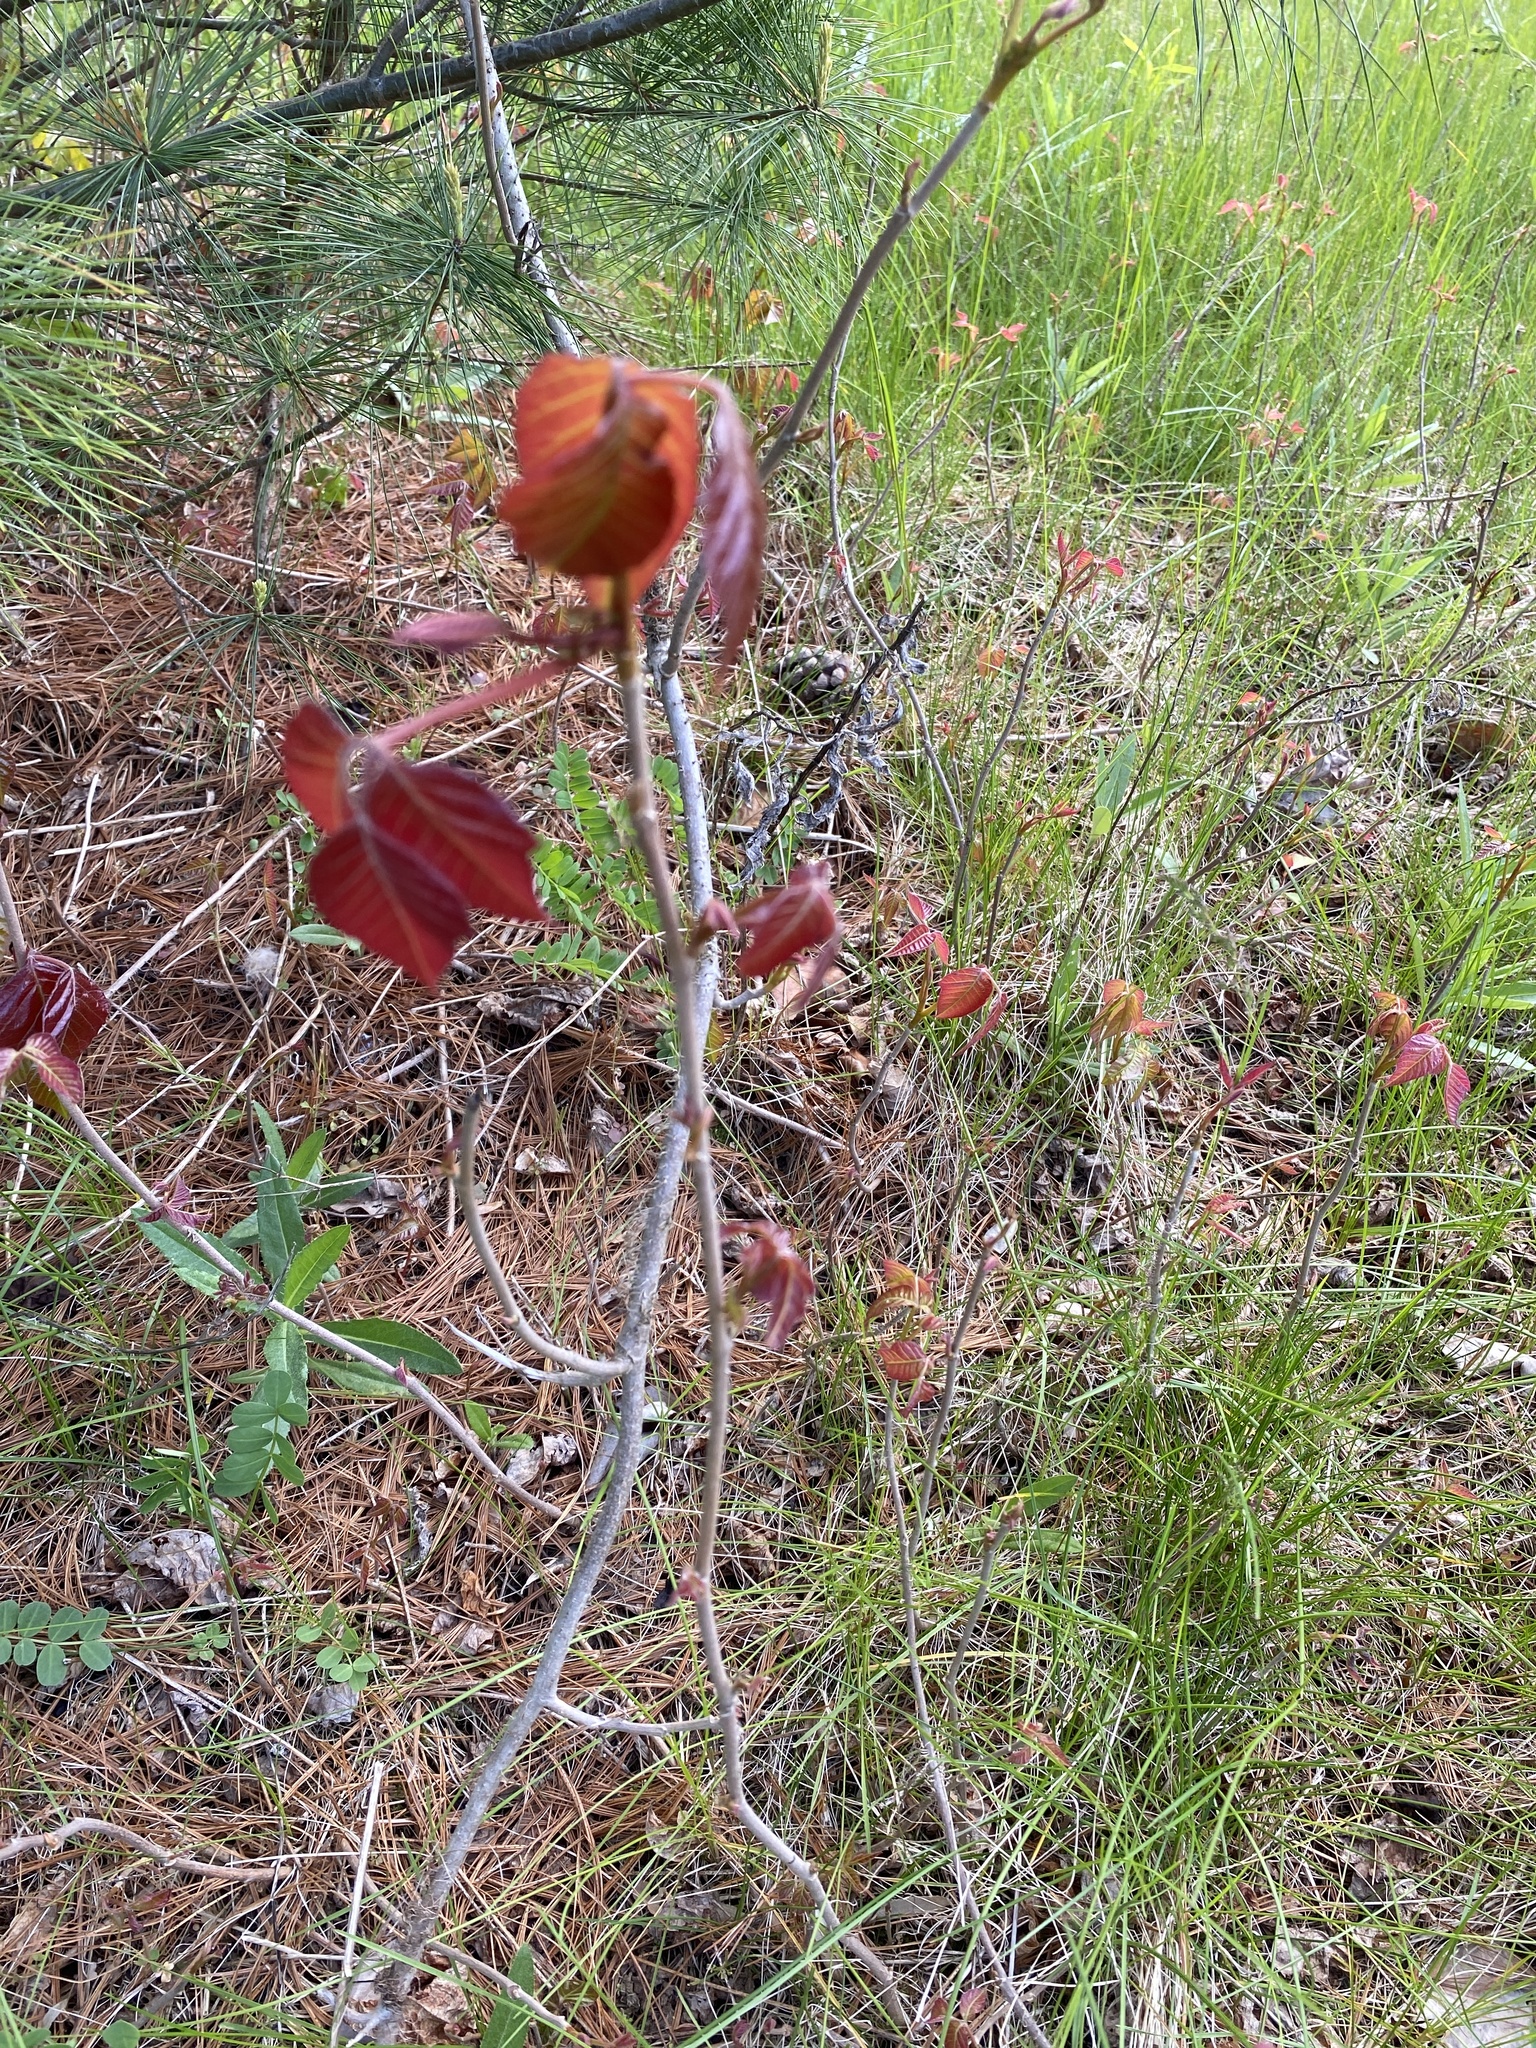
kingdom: Plantae
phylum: Tracheophyta
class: Magnoliopsida
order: Sapindales
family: Anacardiaceae
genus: Toxicodendron
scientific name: Toxicodendron radicans
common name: Poison ivy
